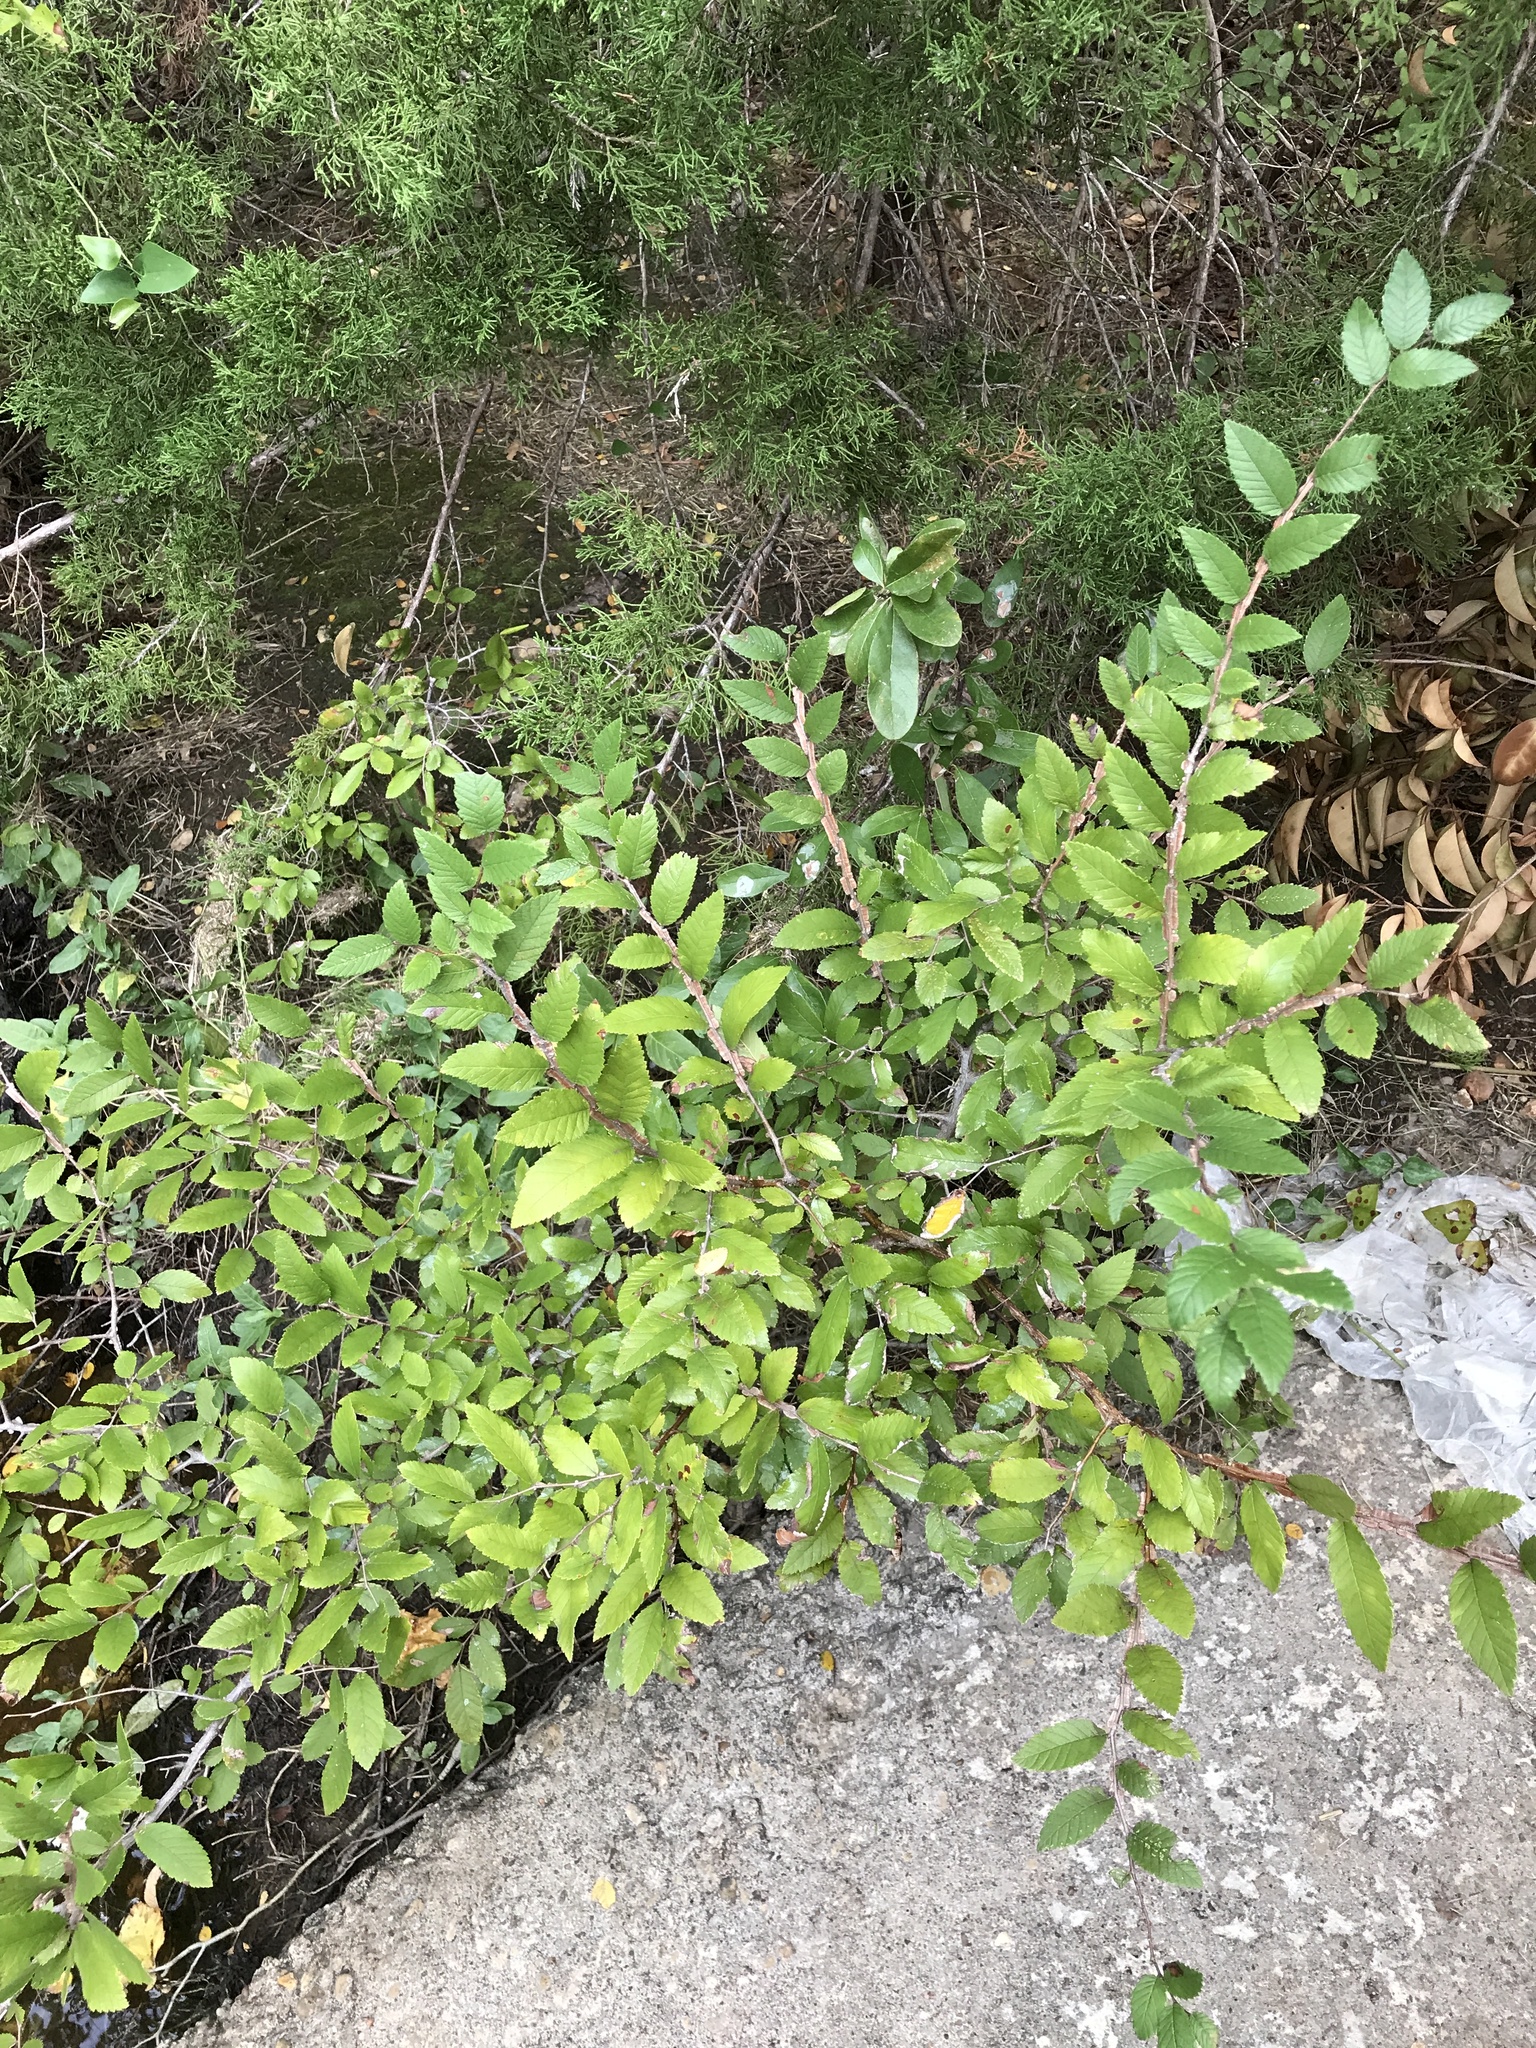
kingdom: Plantae
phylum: Tracheophyta
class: Magnoliopsida
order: Rosales
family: Ulmaceae
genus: Ulmus
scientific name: Ulmus crassifolia
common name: Basket elm
